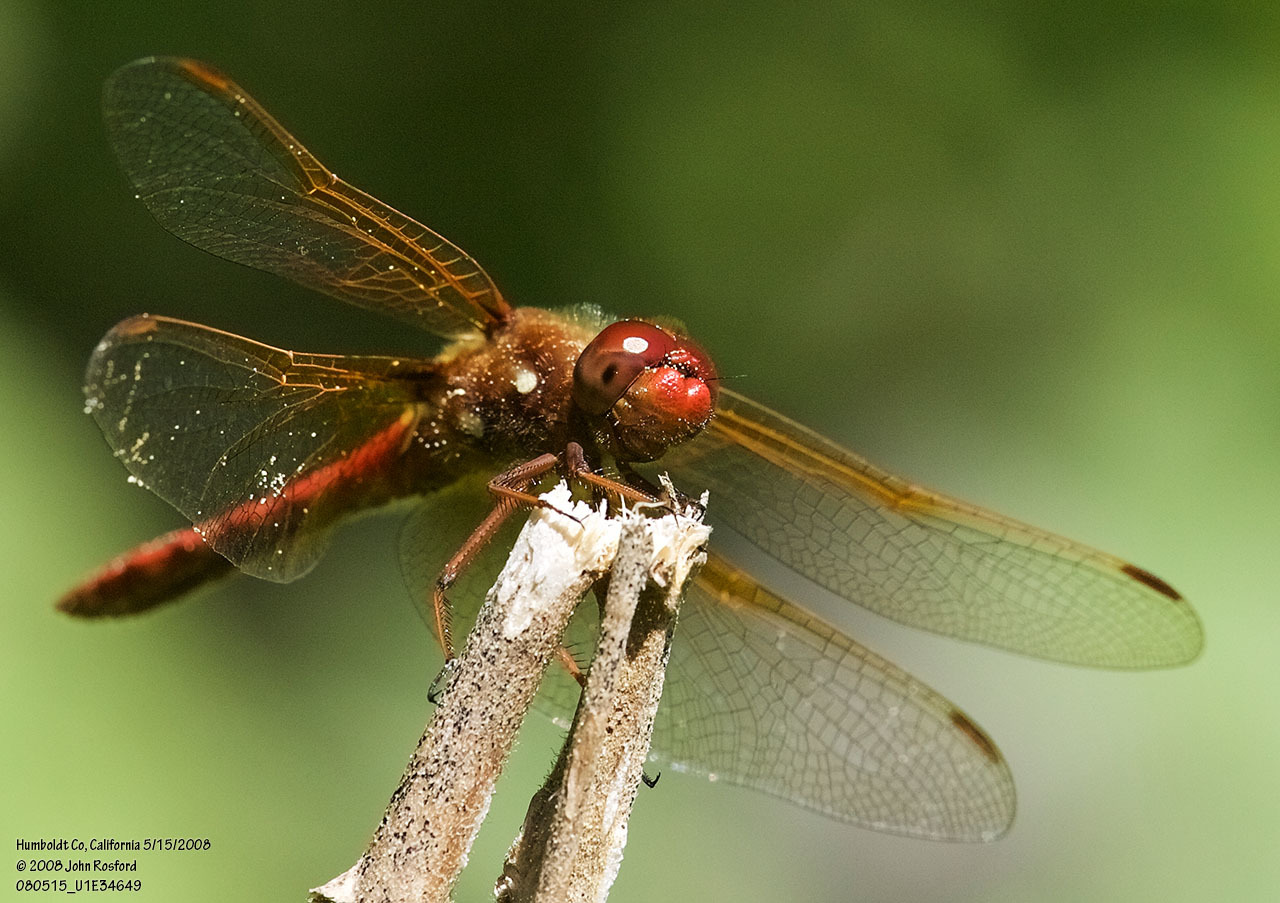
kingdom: Animalia
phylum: Arthropoda
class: Insecta
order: Odonata
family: Libellulidae
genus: Sympetrum
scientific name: Sympetrum illotum
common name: Cardinal meadowhawk
